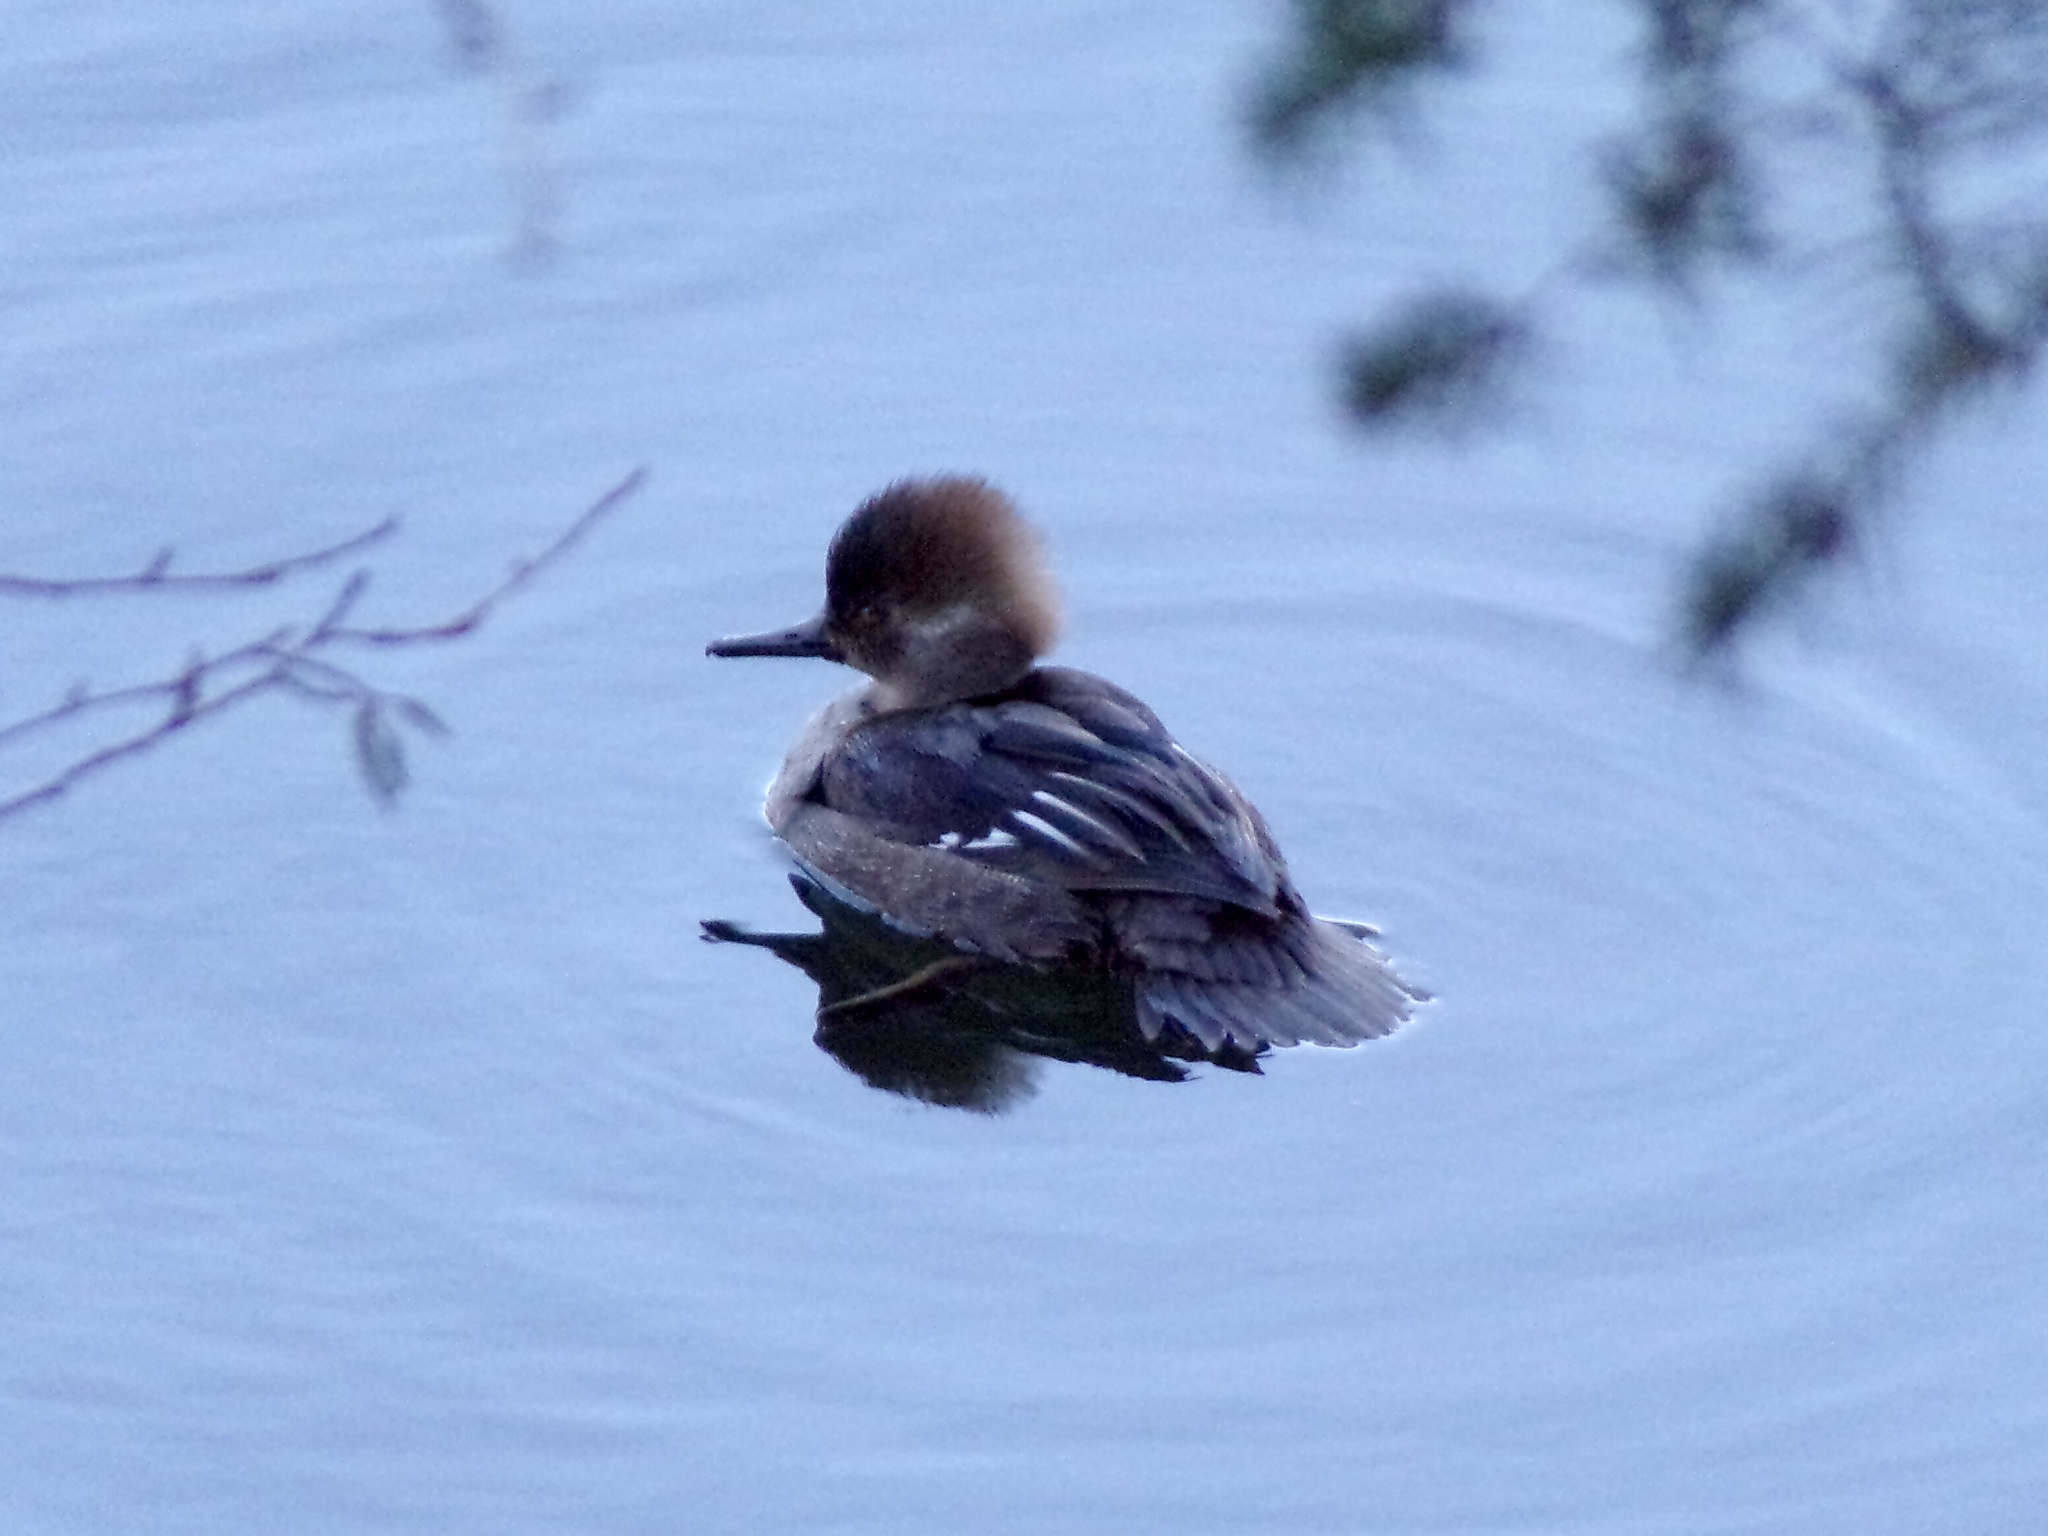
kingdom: Animalia
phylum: Chordata
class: Aves
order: Anseriformes
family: Anatidae
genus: Lophodytes
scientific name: Lophodytes cucullatus
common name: Hooded merganser
